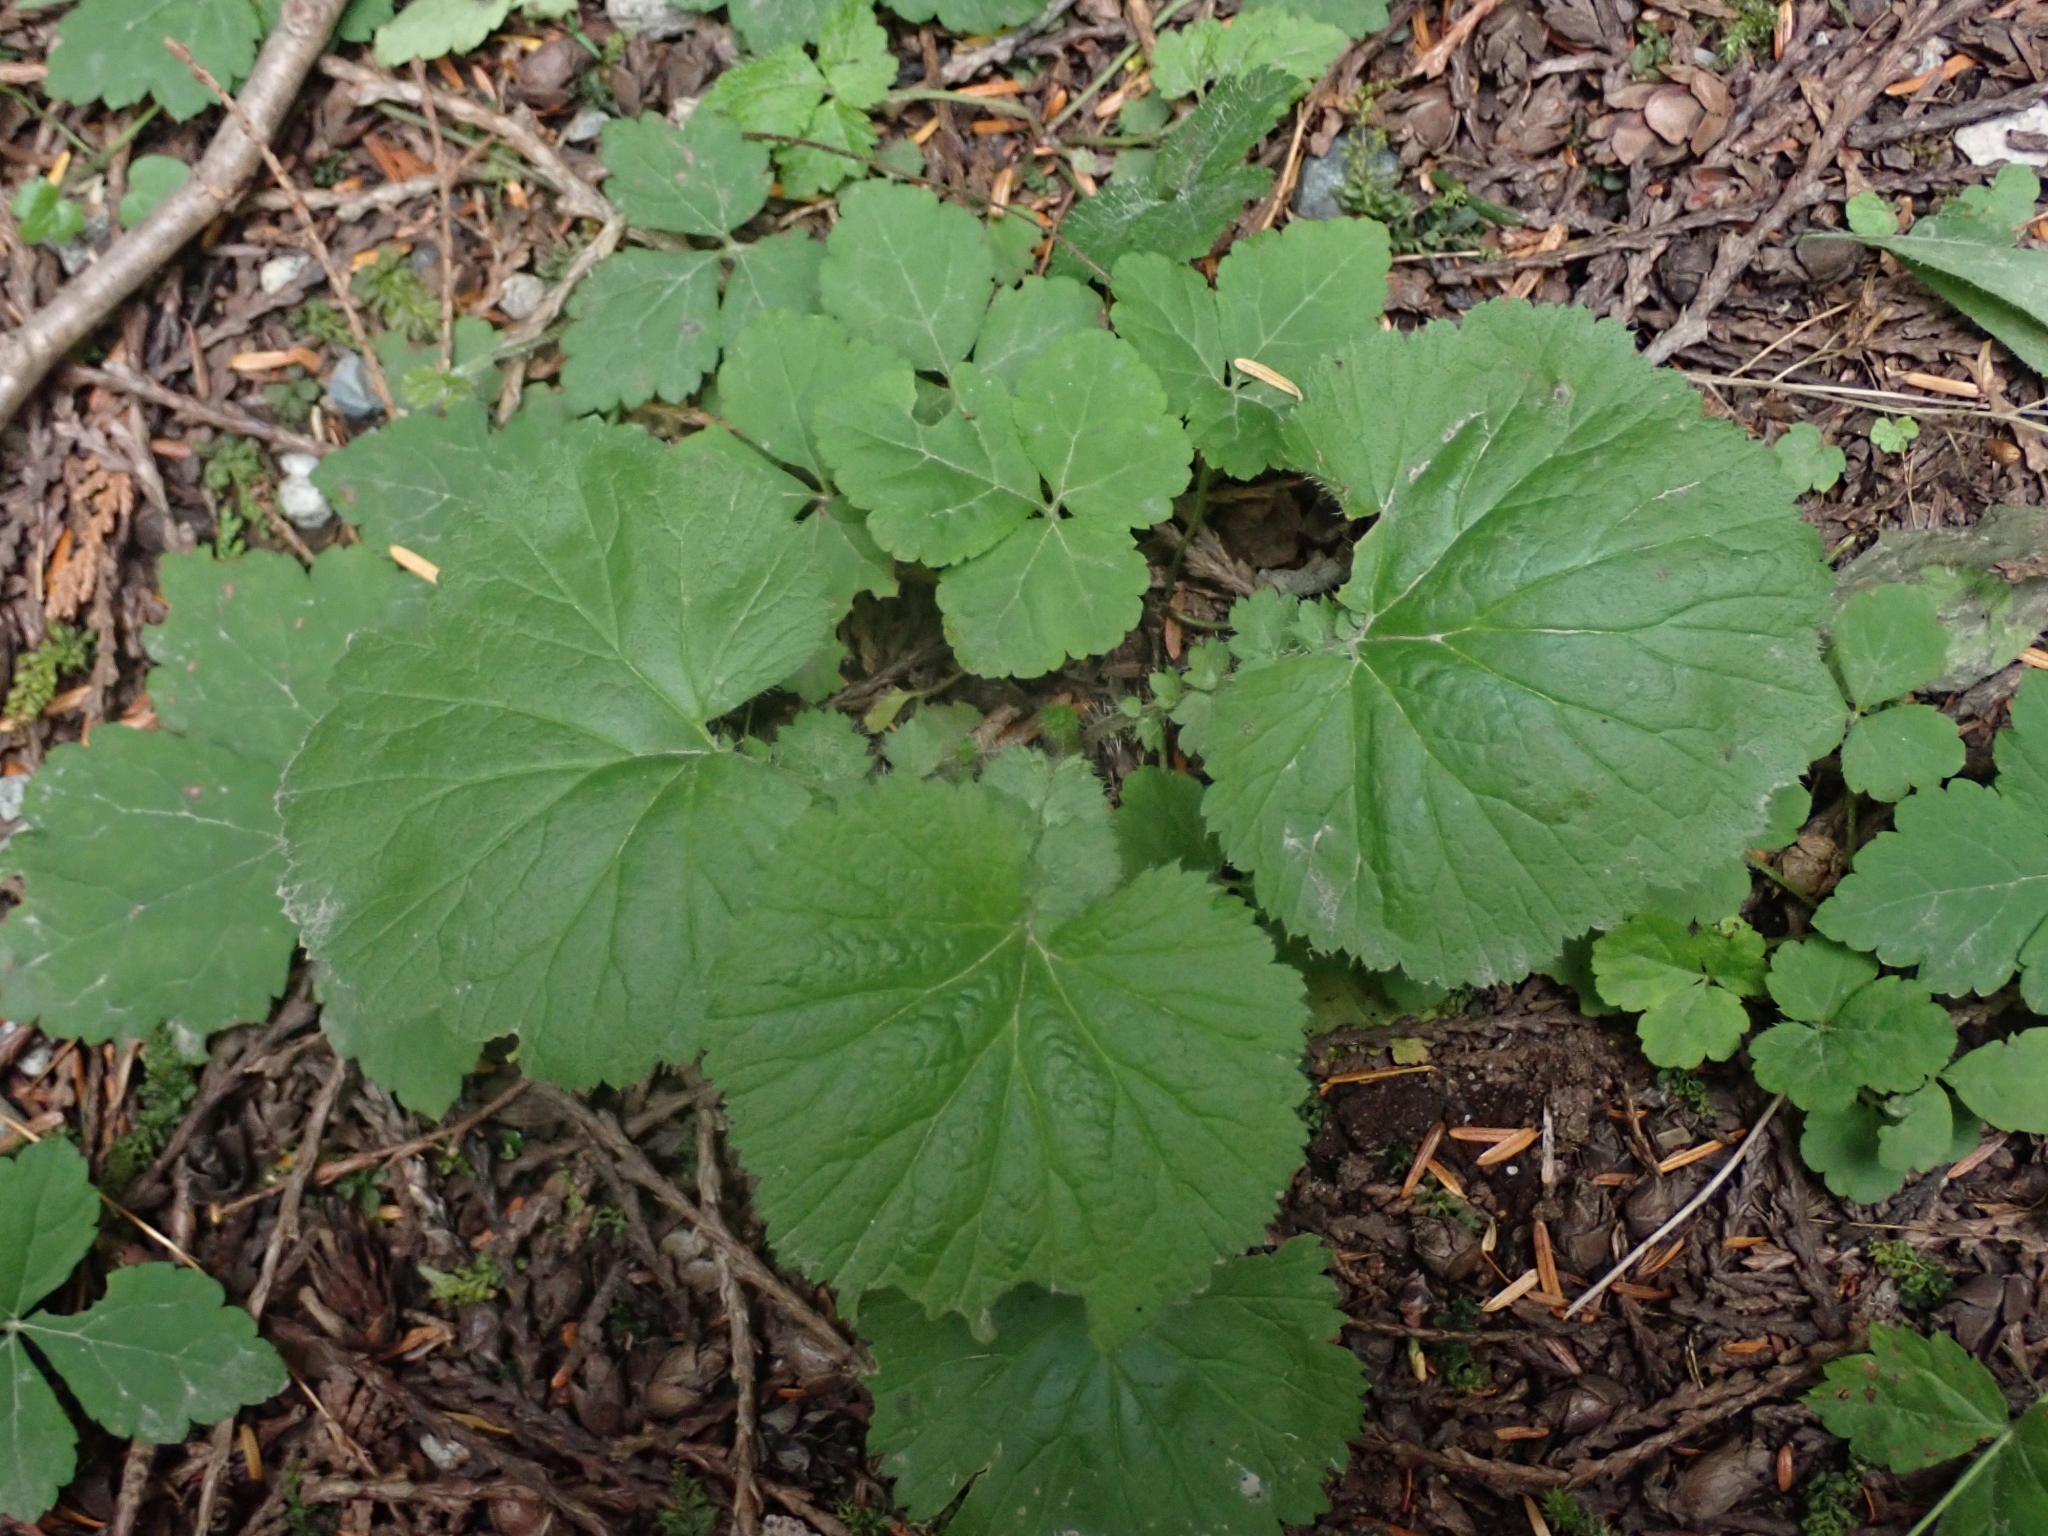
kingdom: Plantae
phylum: Tracheophyta
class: Magnoliopsida
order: Rosales
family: Rosaceae
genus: Geum
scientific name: Geum macrophyllum
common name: Large-leaved avens
